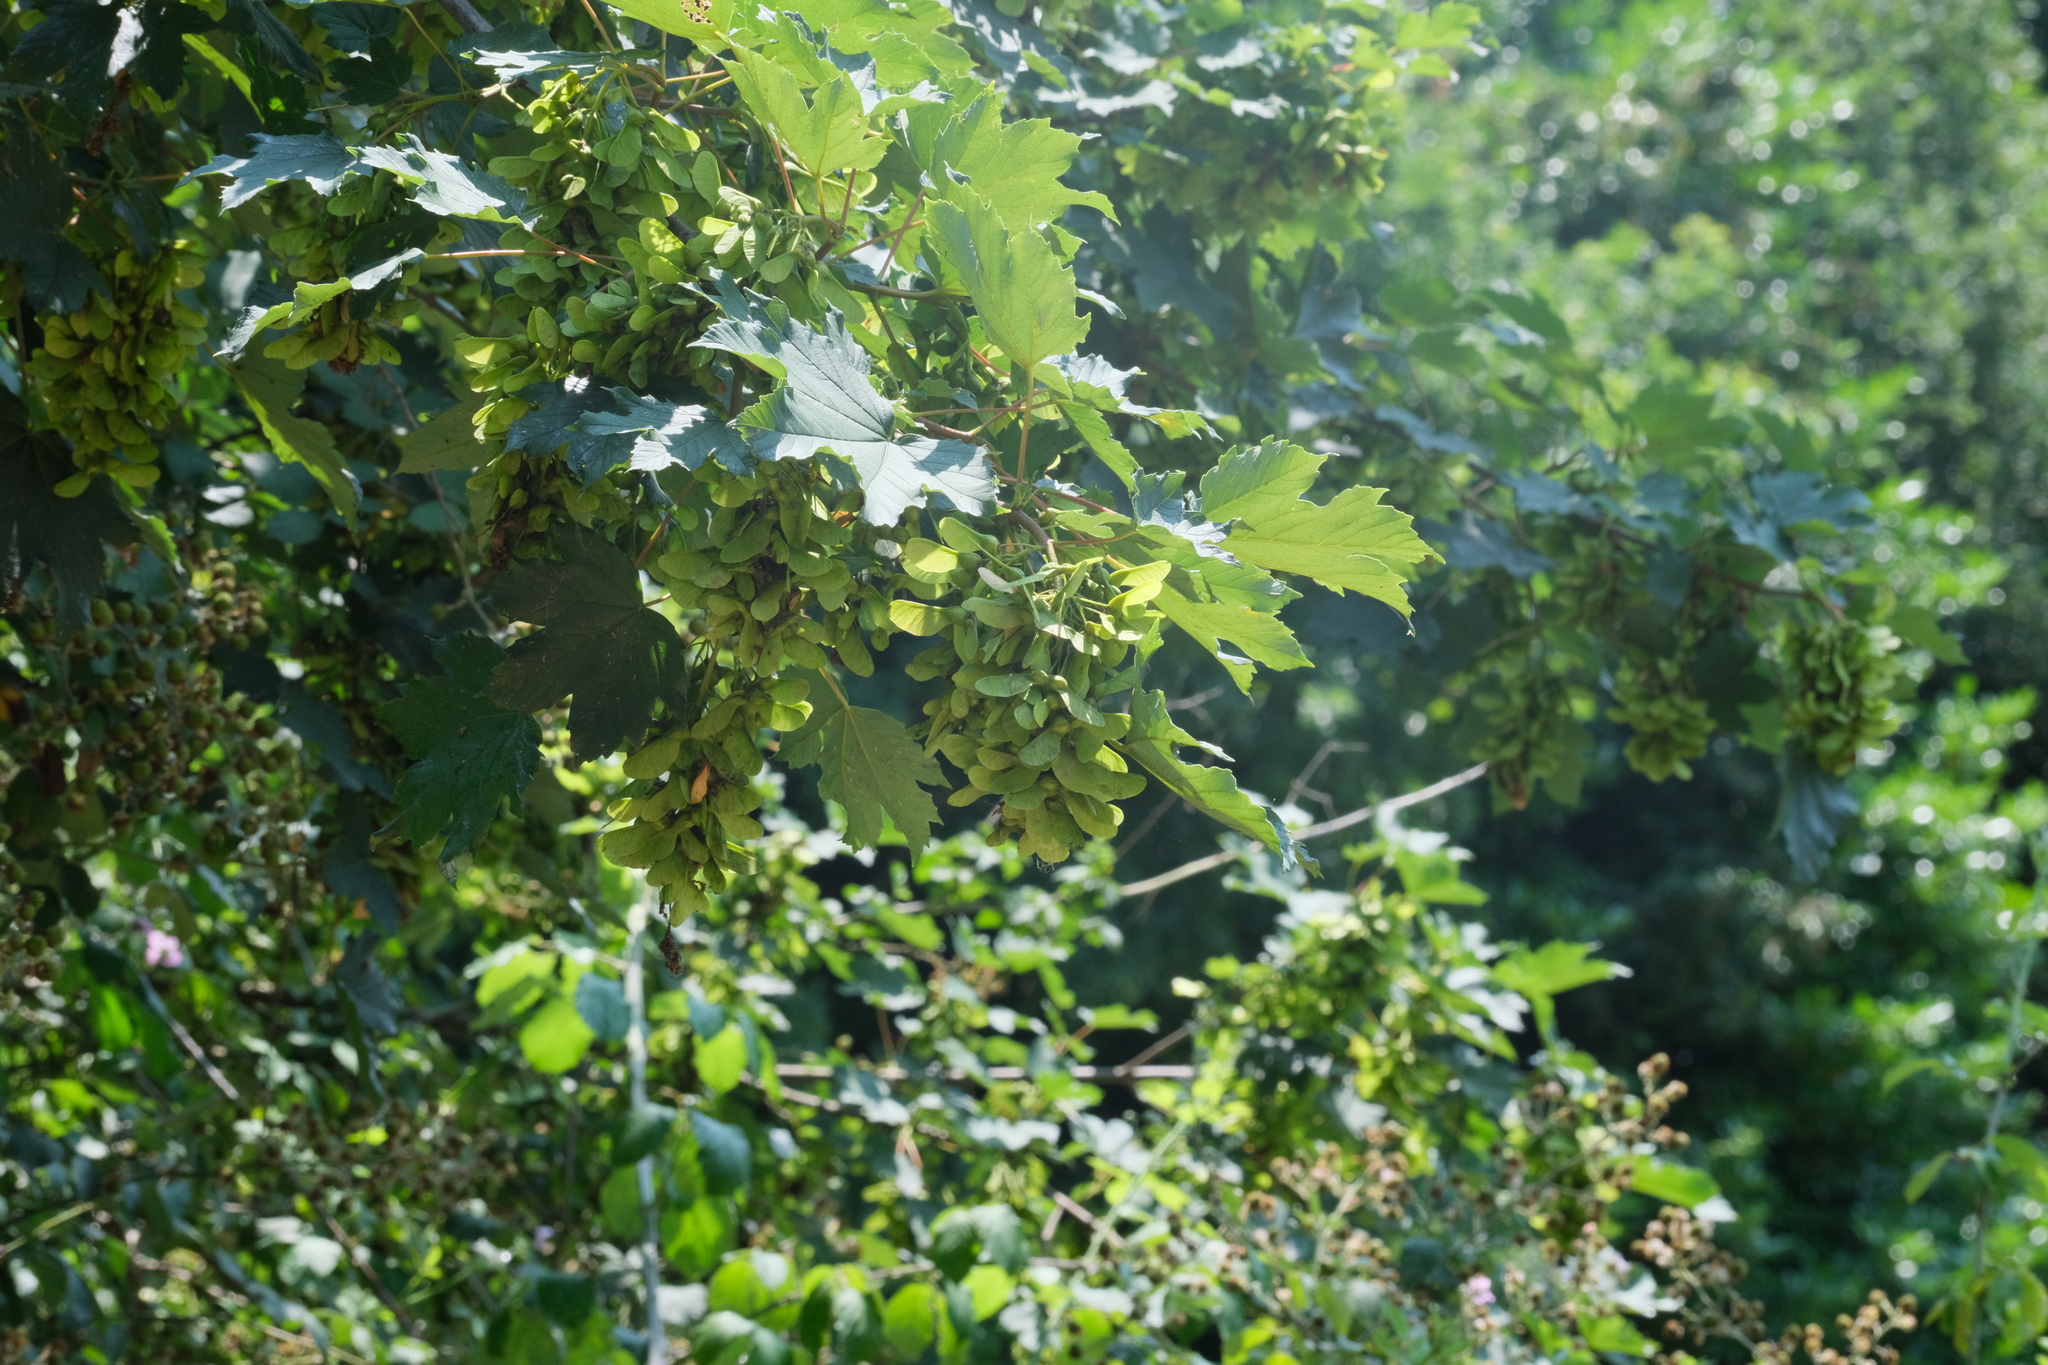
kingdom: Plantae
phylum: Tracheophyta
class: Magnoliopsida
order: Sapindales
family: Sapindaceae
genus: Acer
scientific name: Acer pseudoplatanus
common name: Sycamore
